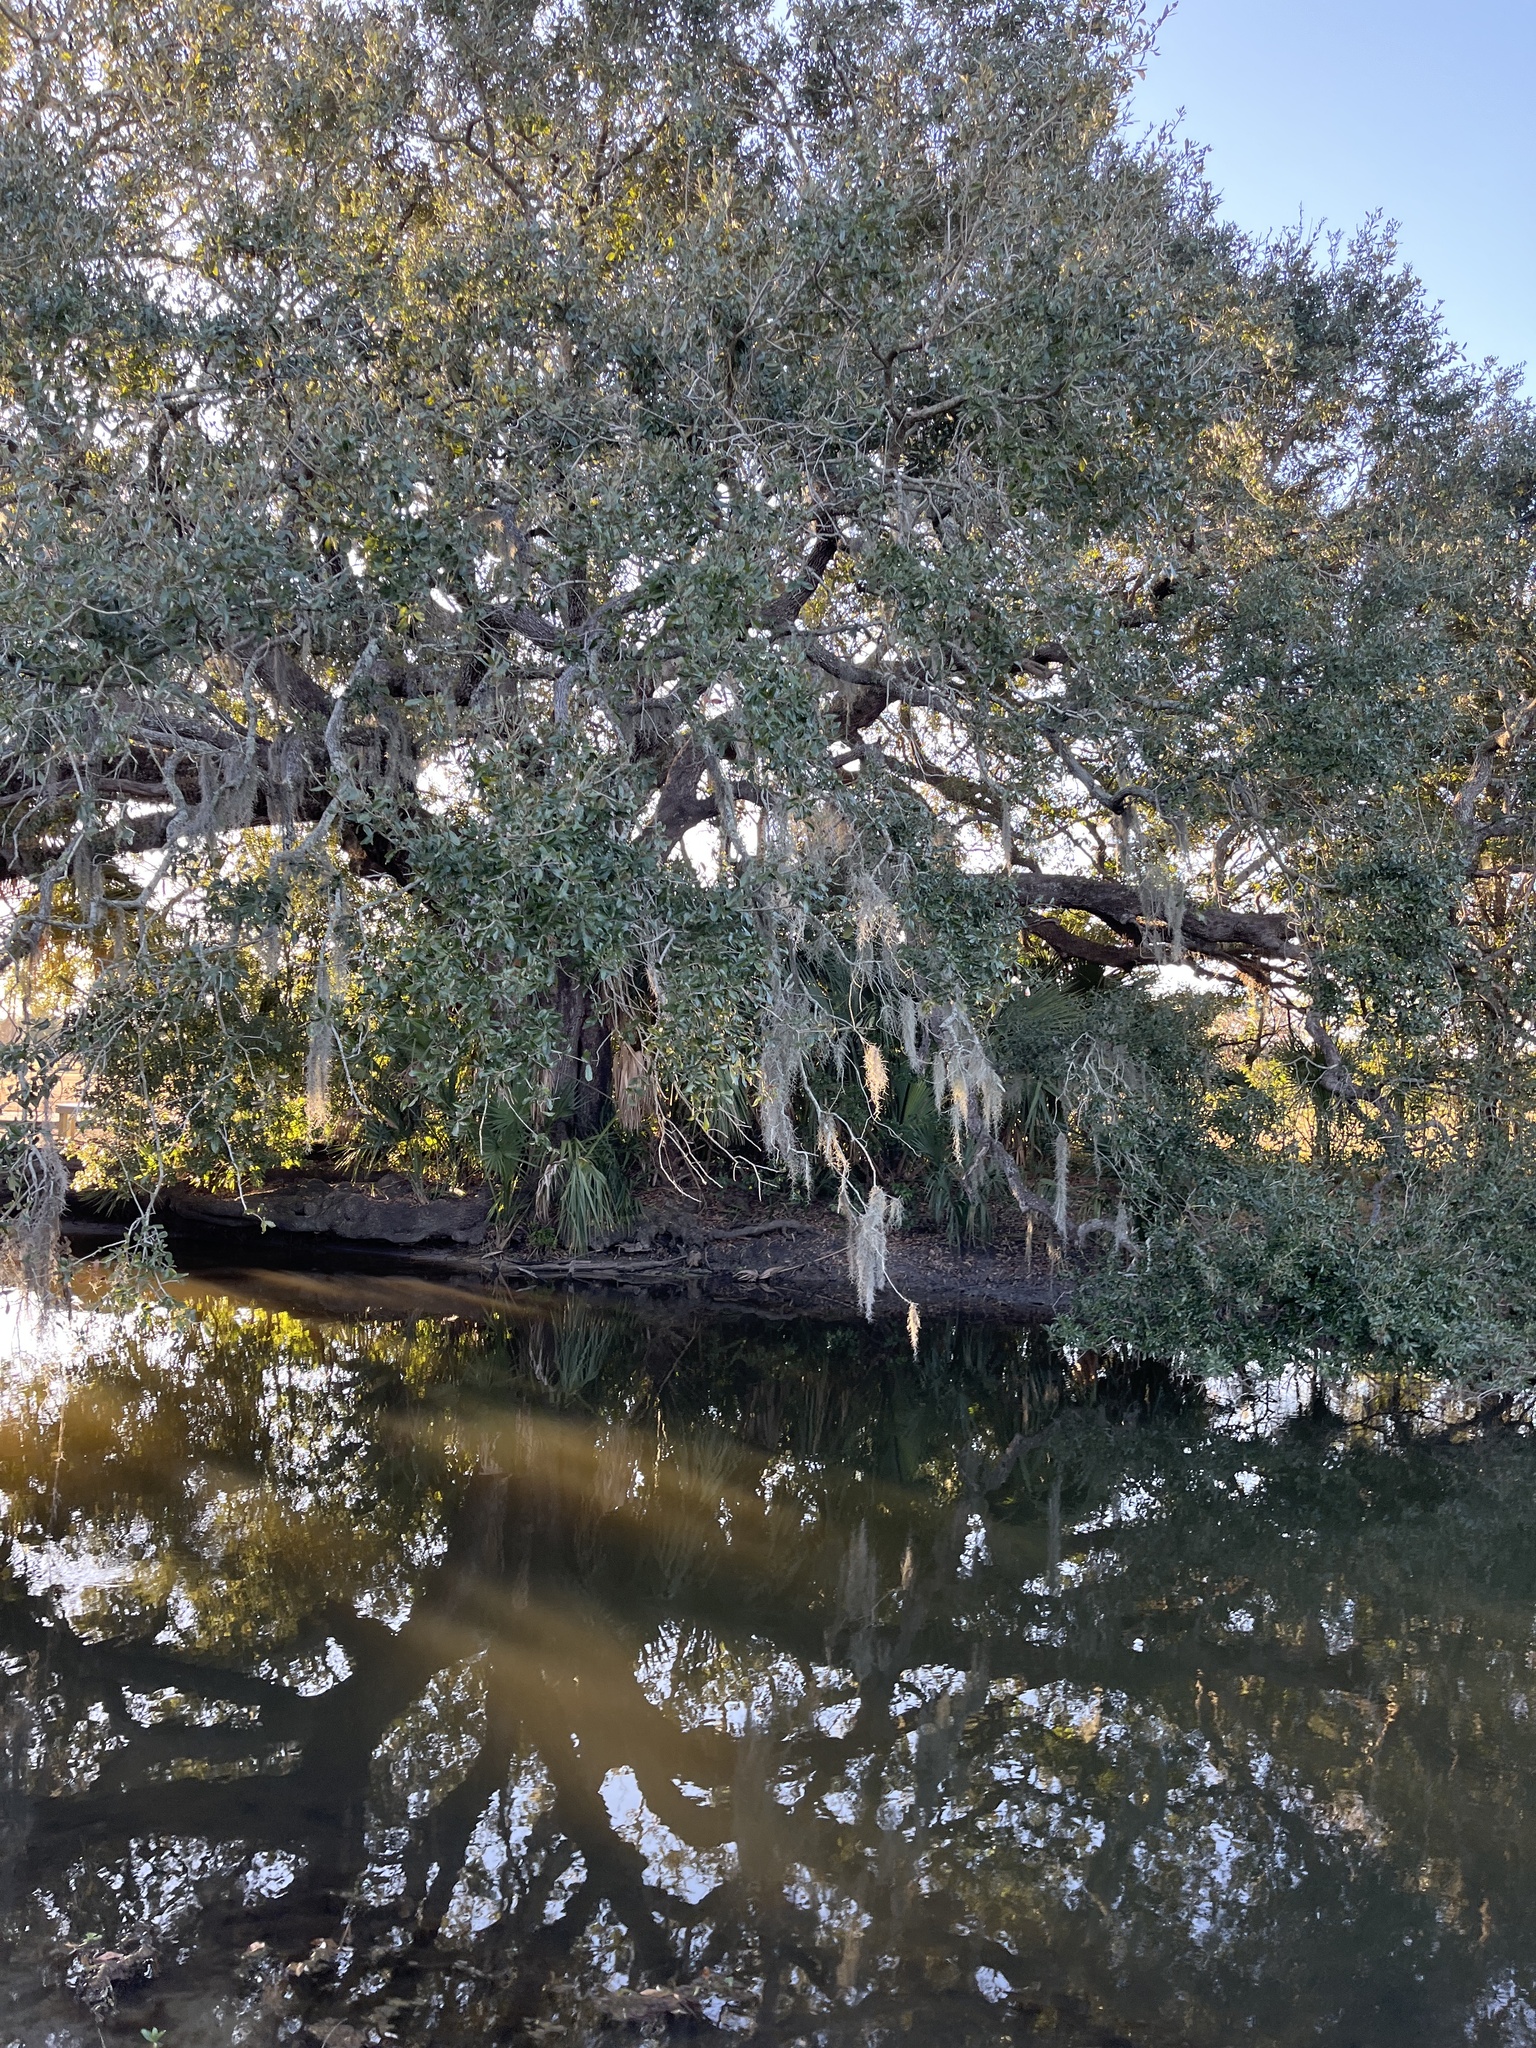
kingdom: Plantae
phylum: Tracheophyta
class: Liliopsida
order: Poales
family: Bromeliaceae
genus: Tillandsia
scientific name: Tillandsia usneoides
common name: Spanish moss
